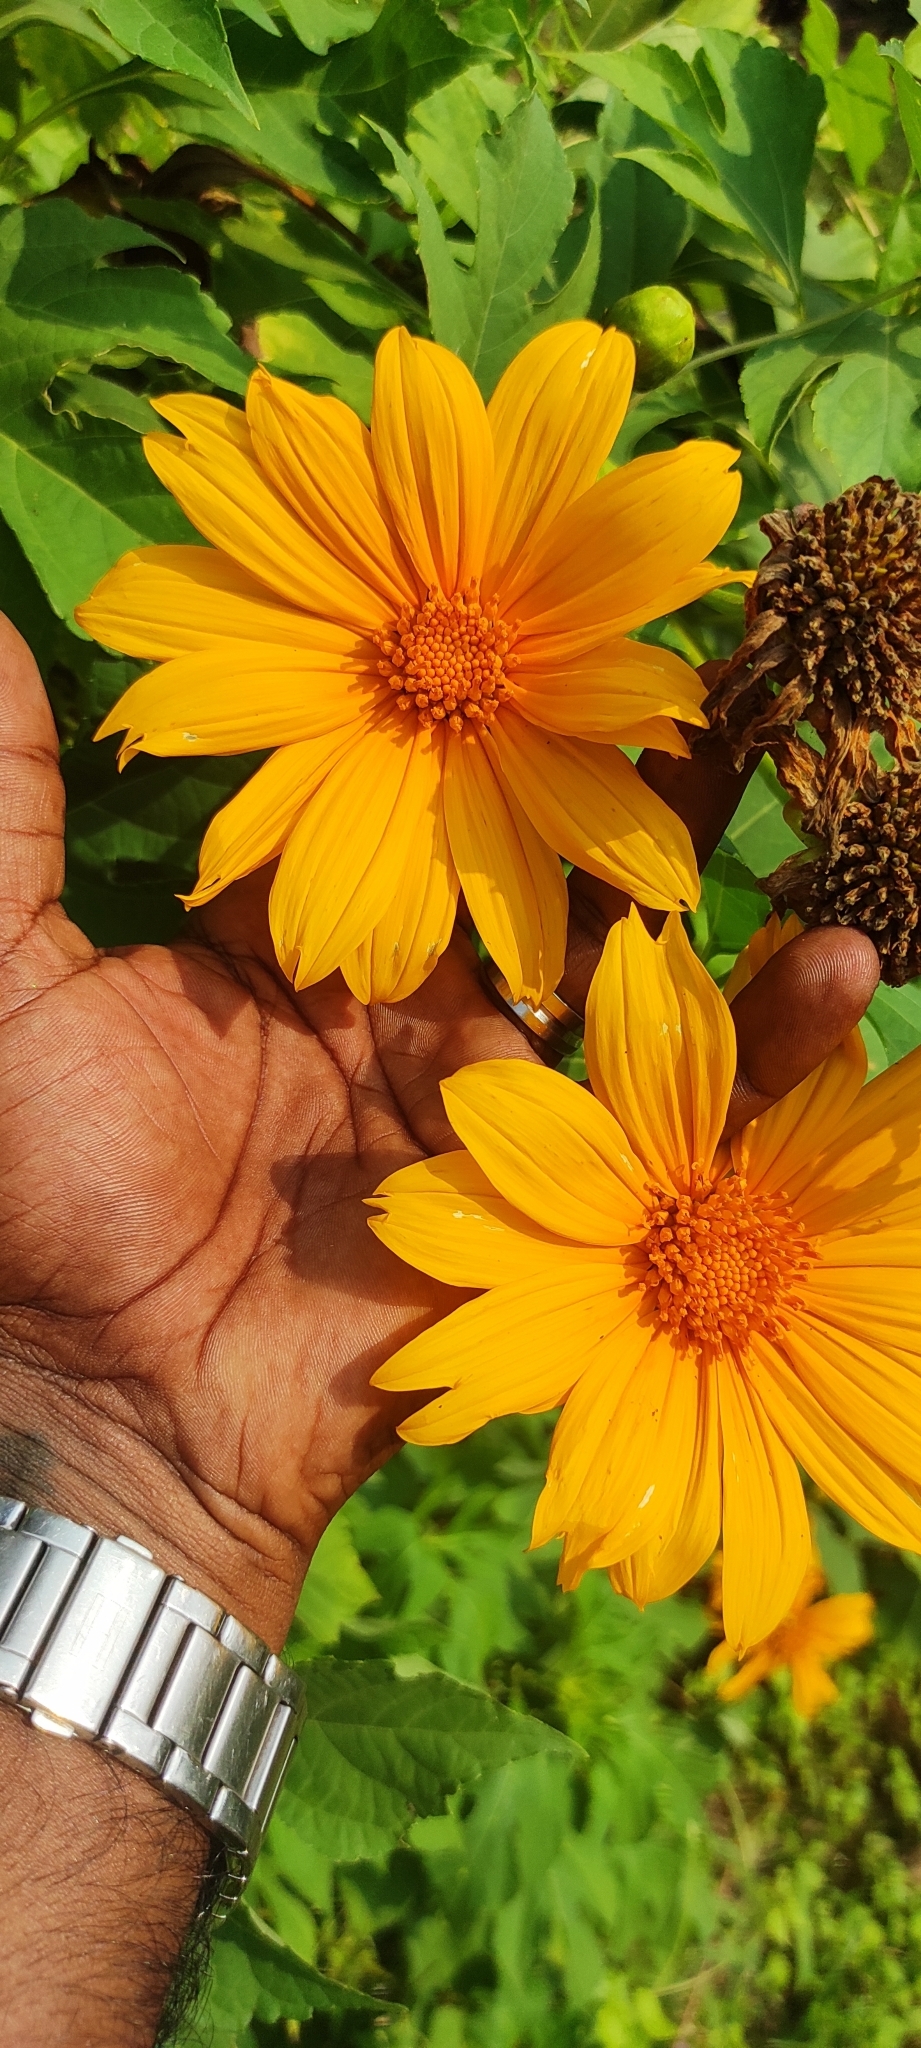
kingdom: Plantae
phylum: Tracheophyta
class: Magnoliopsida
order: Asterales
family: Asteraceae
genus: Tithonia
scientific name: Tithonia diversifolia
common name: Tree marigold
